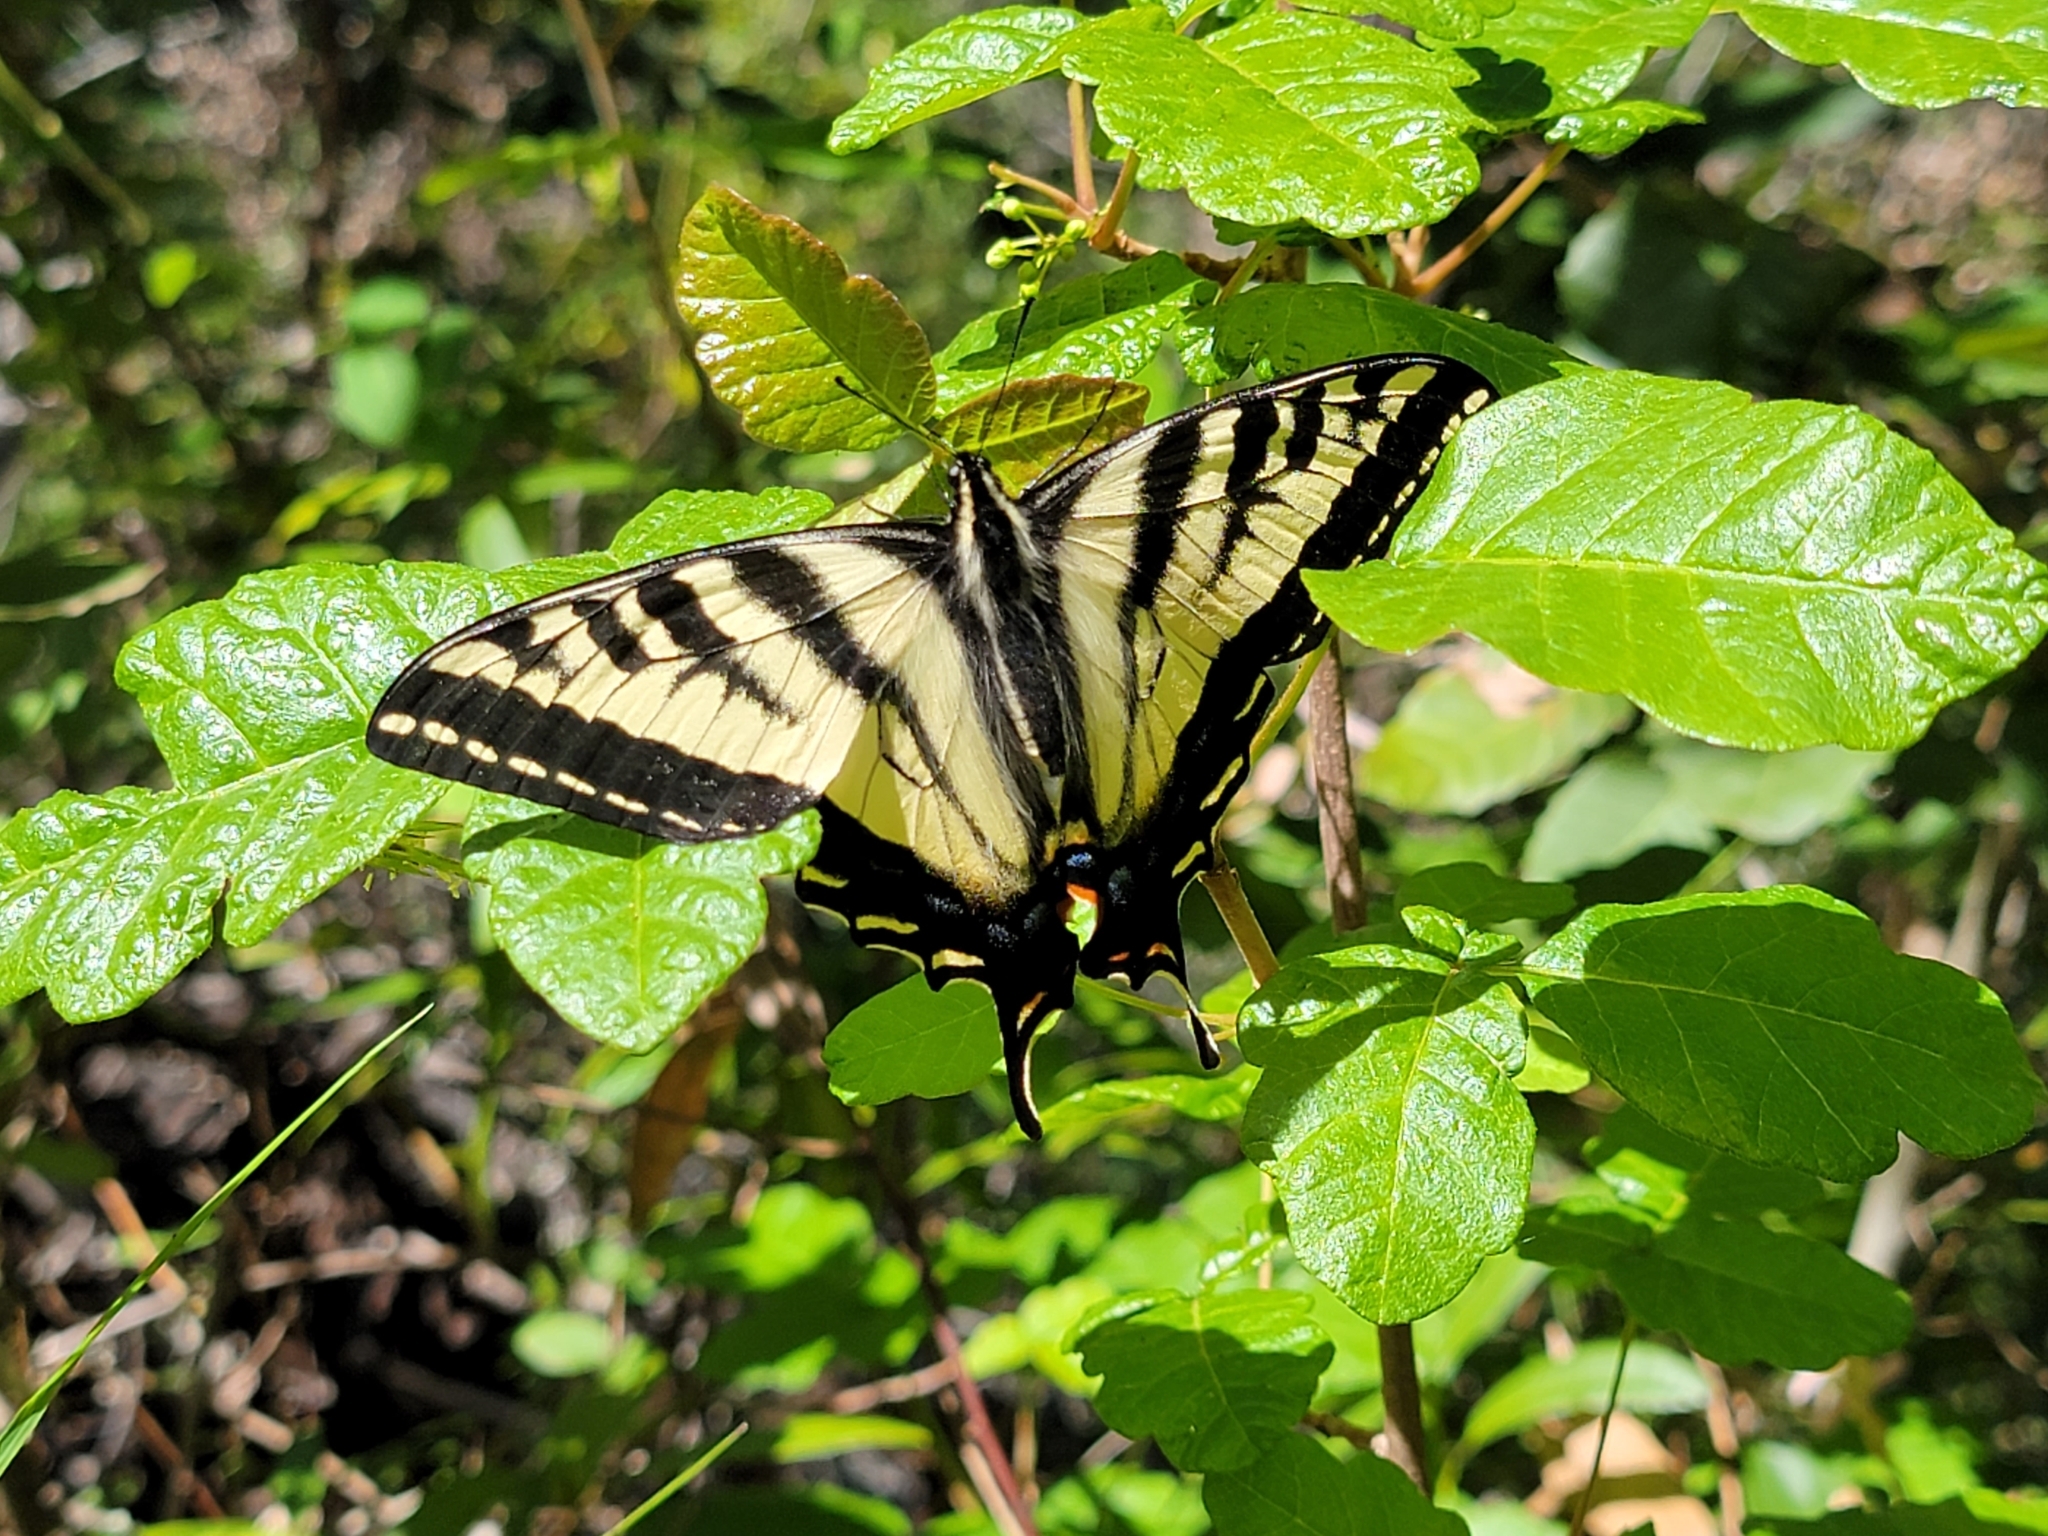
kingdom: Animalia
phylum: Arthropoda
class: Insecta
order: Lepidoptera
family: Papilionidae
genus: Papilio
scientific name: Papilio rutulus
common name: Western tiger swallowtail
